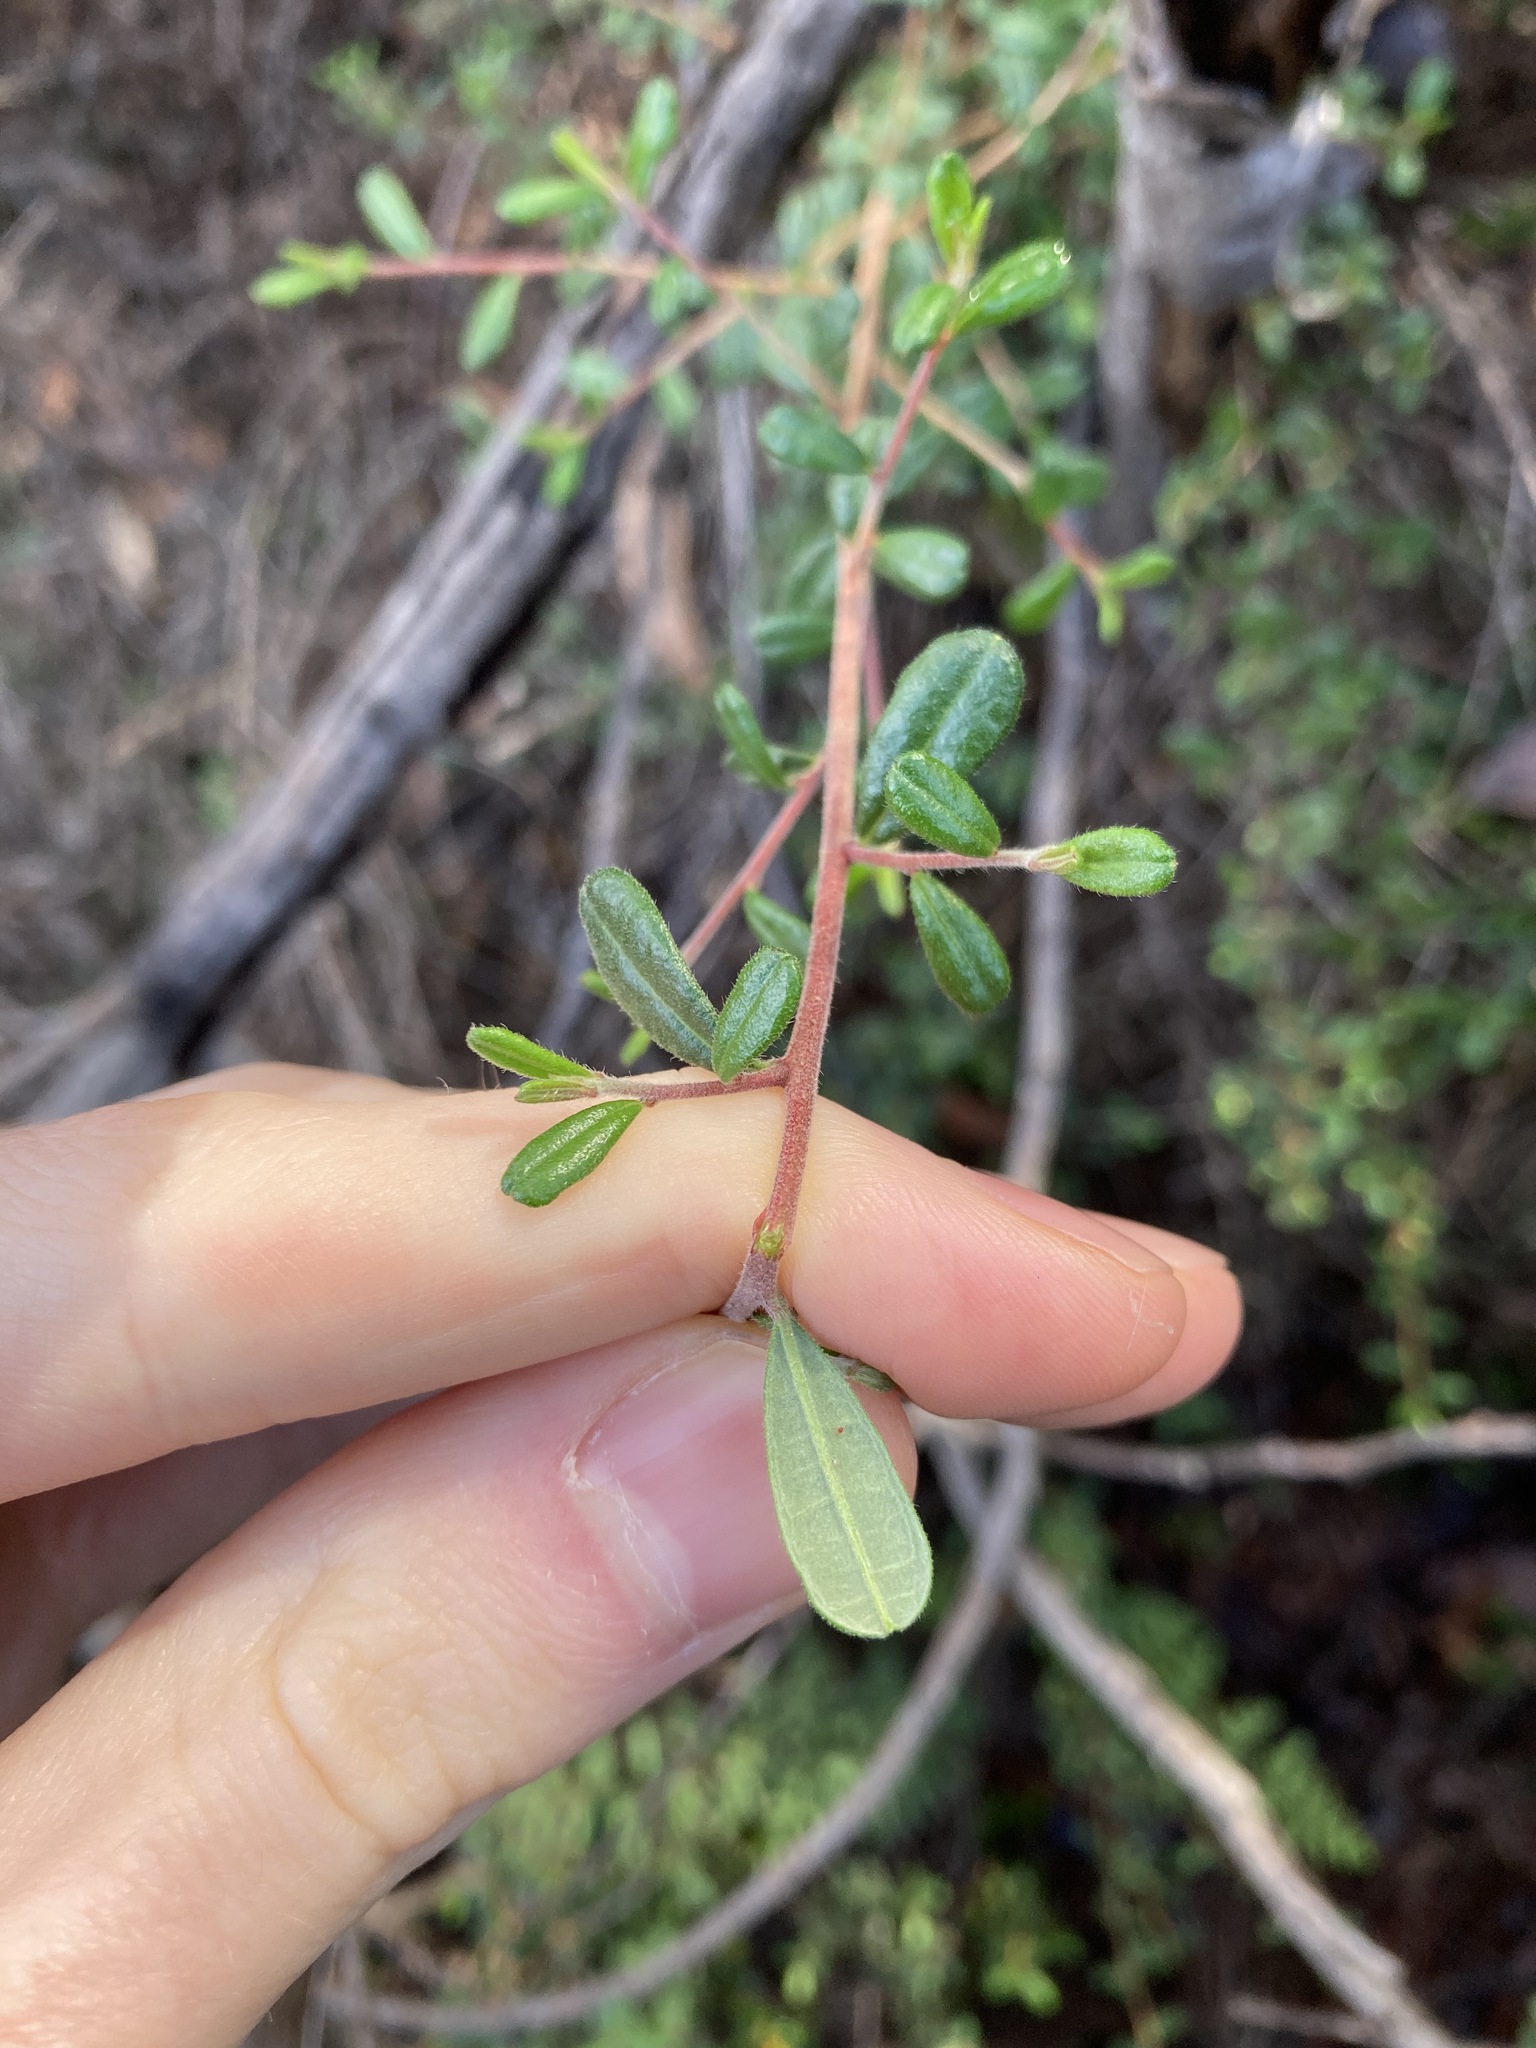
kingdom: Plantae
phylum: Tracheophyta
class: Magnoliopsida
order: Dilleniales
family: Dilleniaceae
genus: Hibbertia
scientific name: Hibbertia aspera
